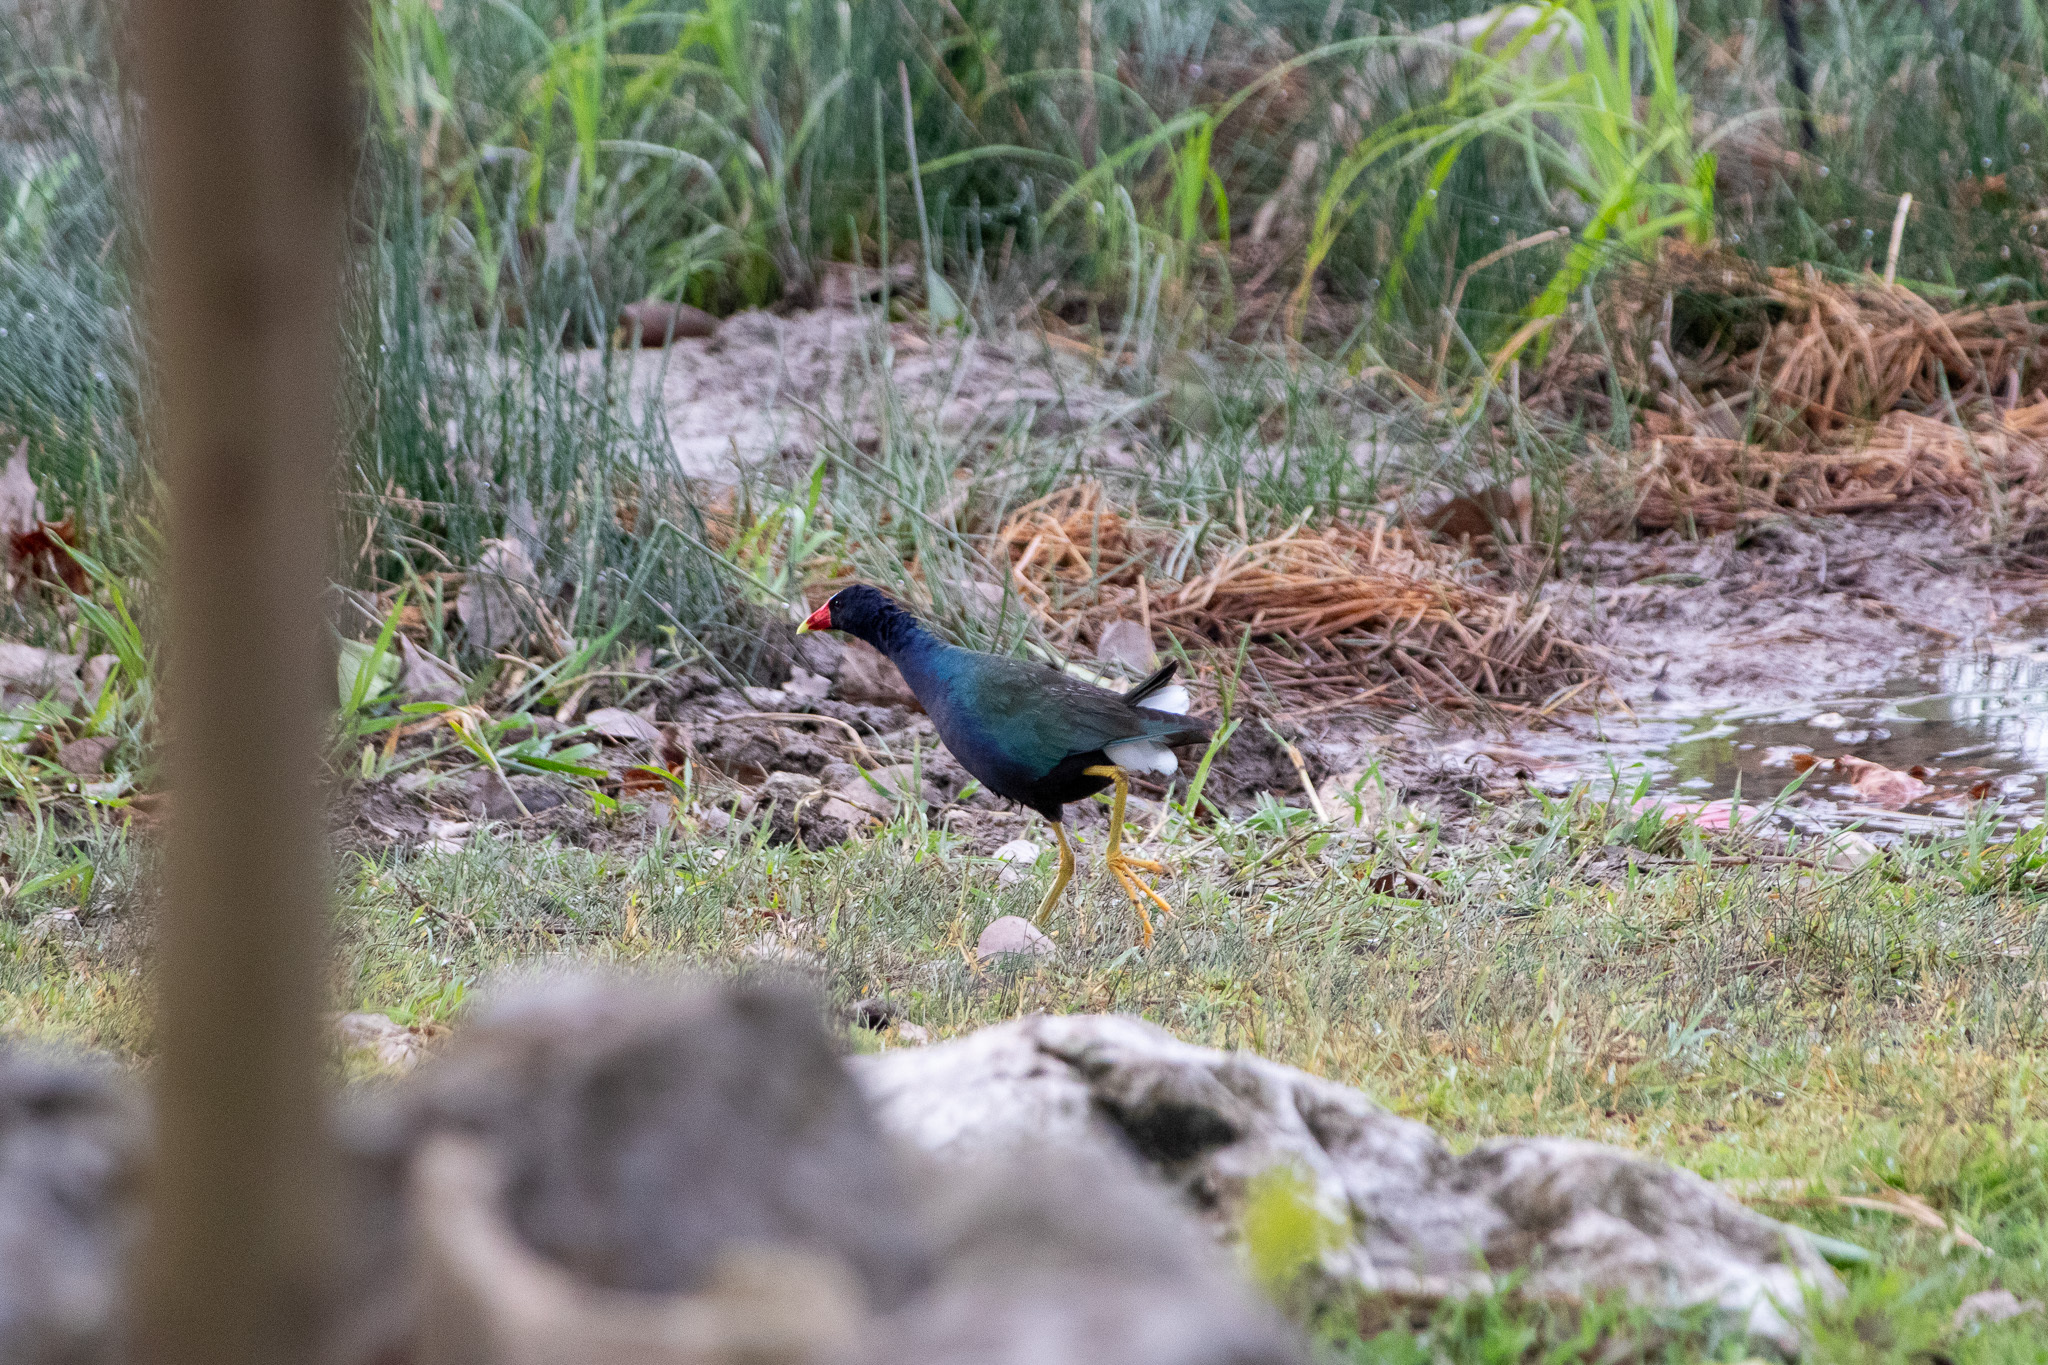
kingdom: Animalia
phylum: Chordata
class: Aves
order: Gruiformes
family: Rallidae
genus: Porphyrio
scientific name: Porphyrio martinica
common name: Purple gallinule
